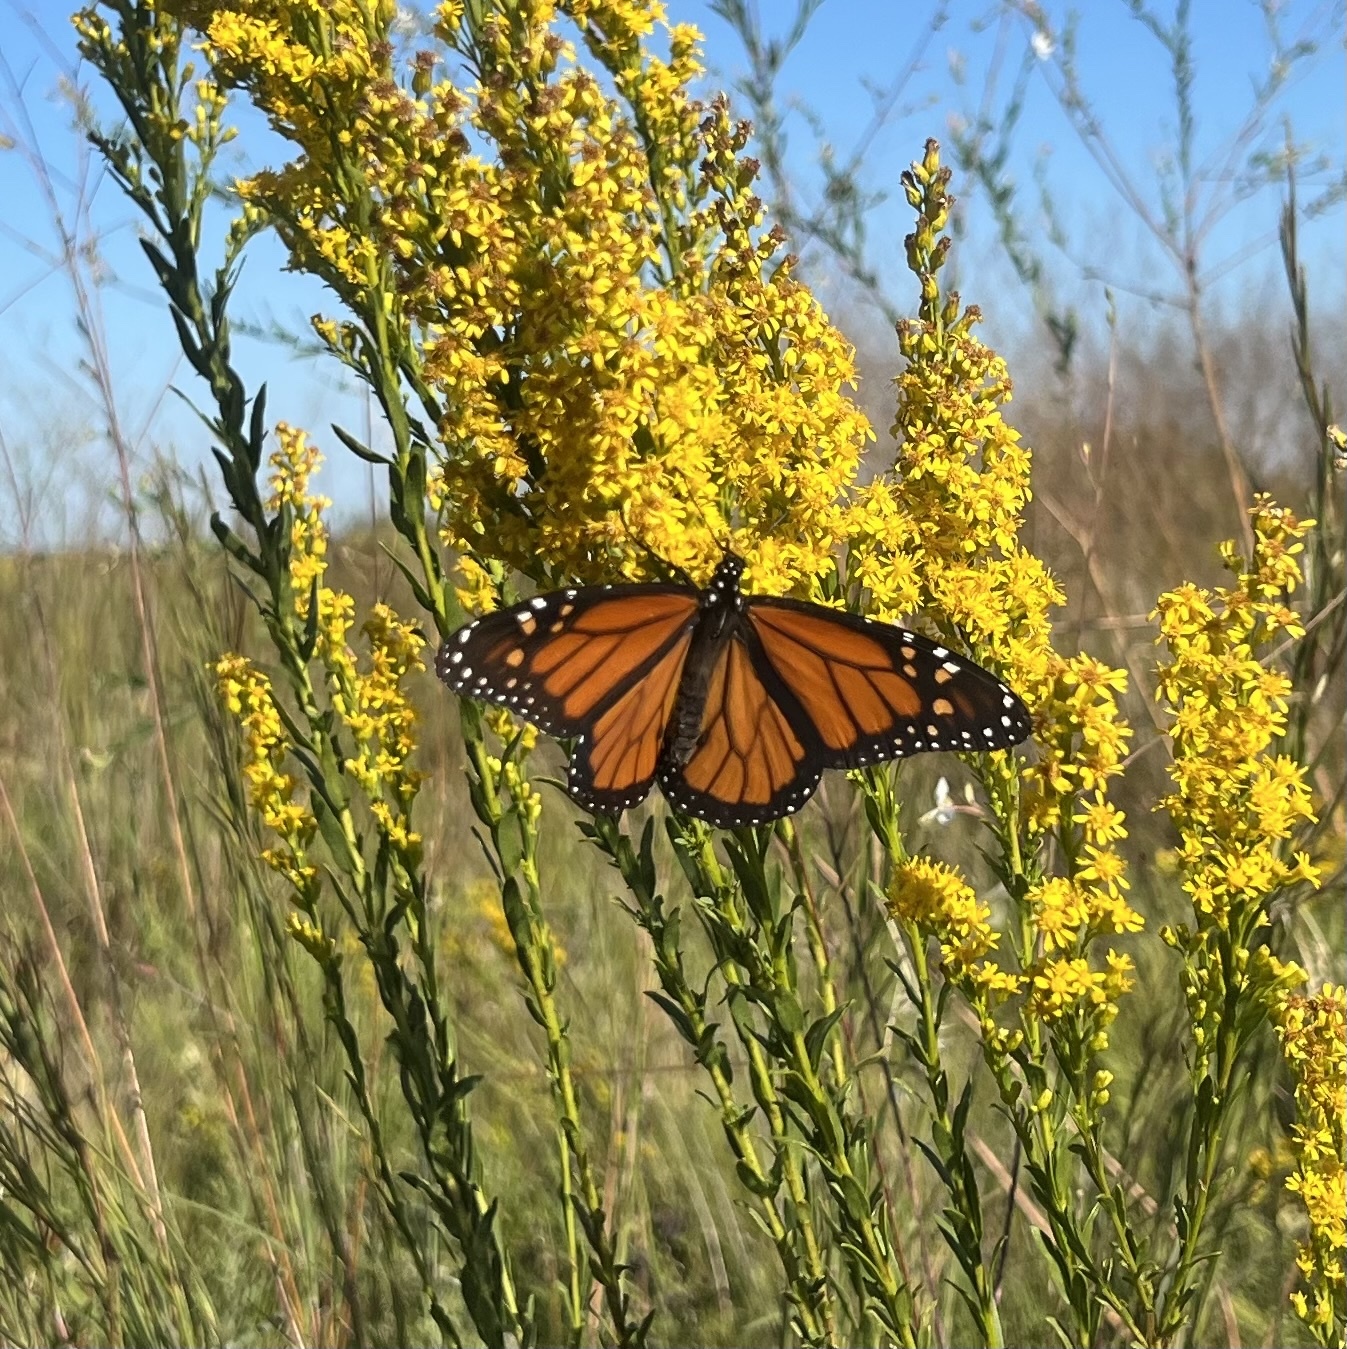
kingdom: Animalia
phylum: Arthropoda
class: Insecta
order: Lepidoptera
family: Nymphalidae
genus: Danaus
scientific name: Danaus plexippus
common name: Monarch
